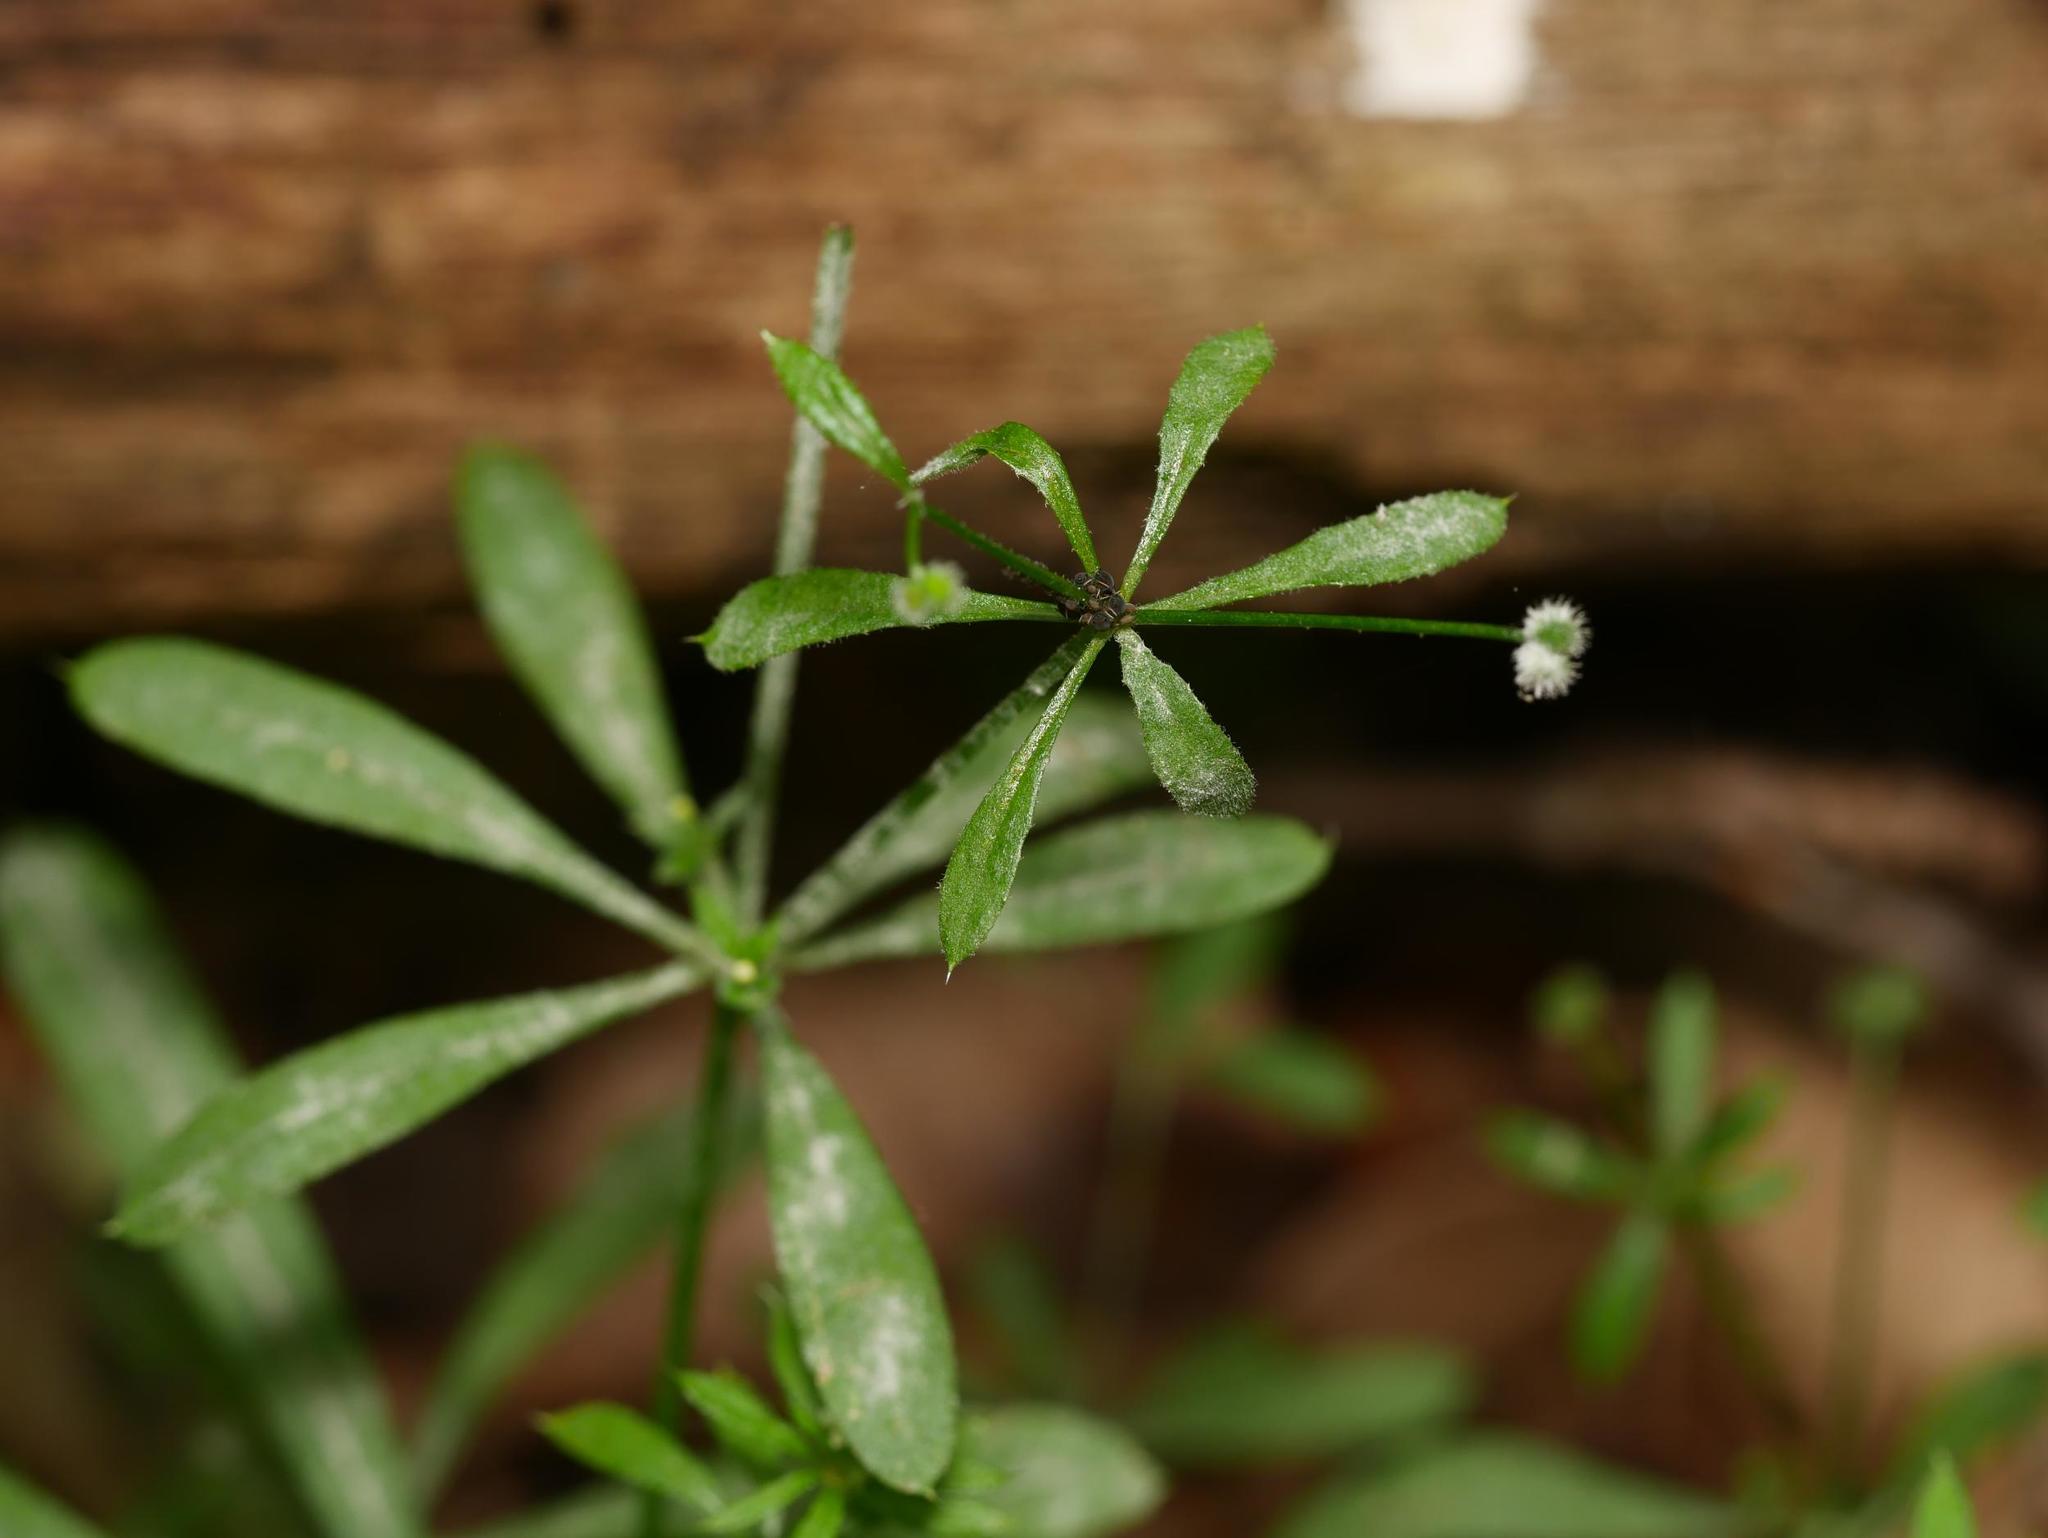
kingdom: Plantae
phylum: Tracheophyta
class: Magnoliopsida
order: Gentianales
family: Rubiaceae
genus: Galium
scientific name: Galium aparine
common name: Cleavers
